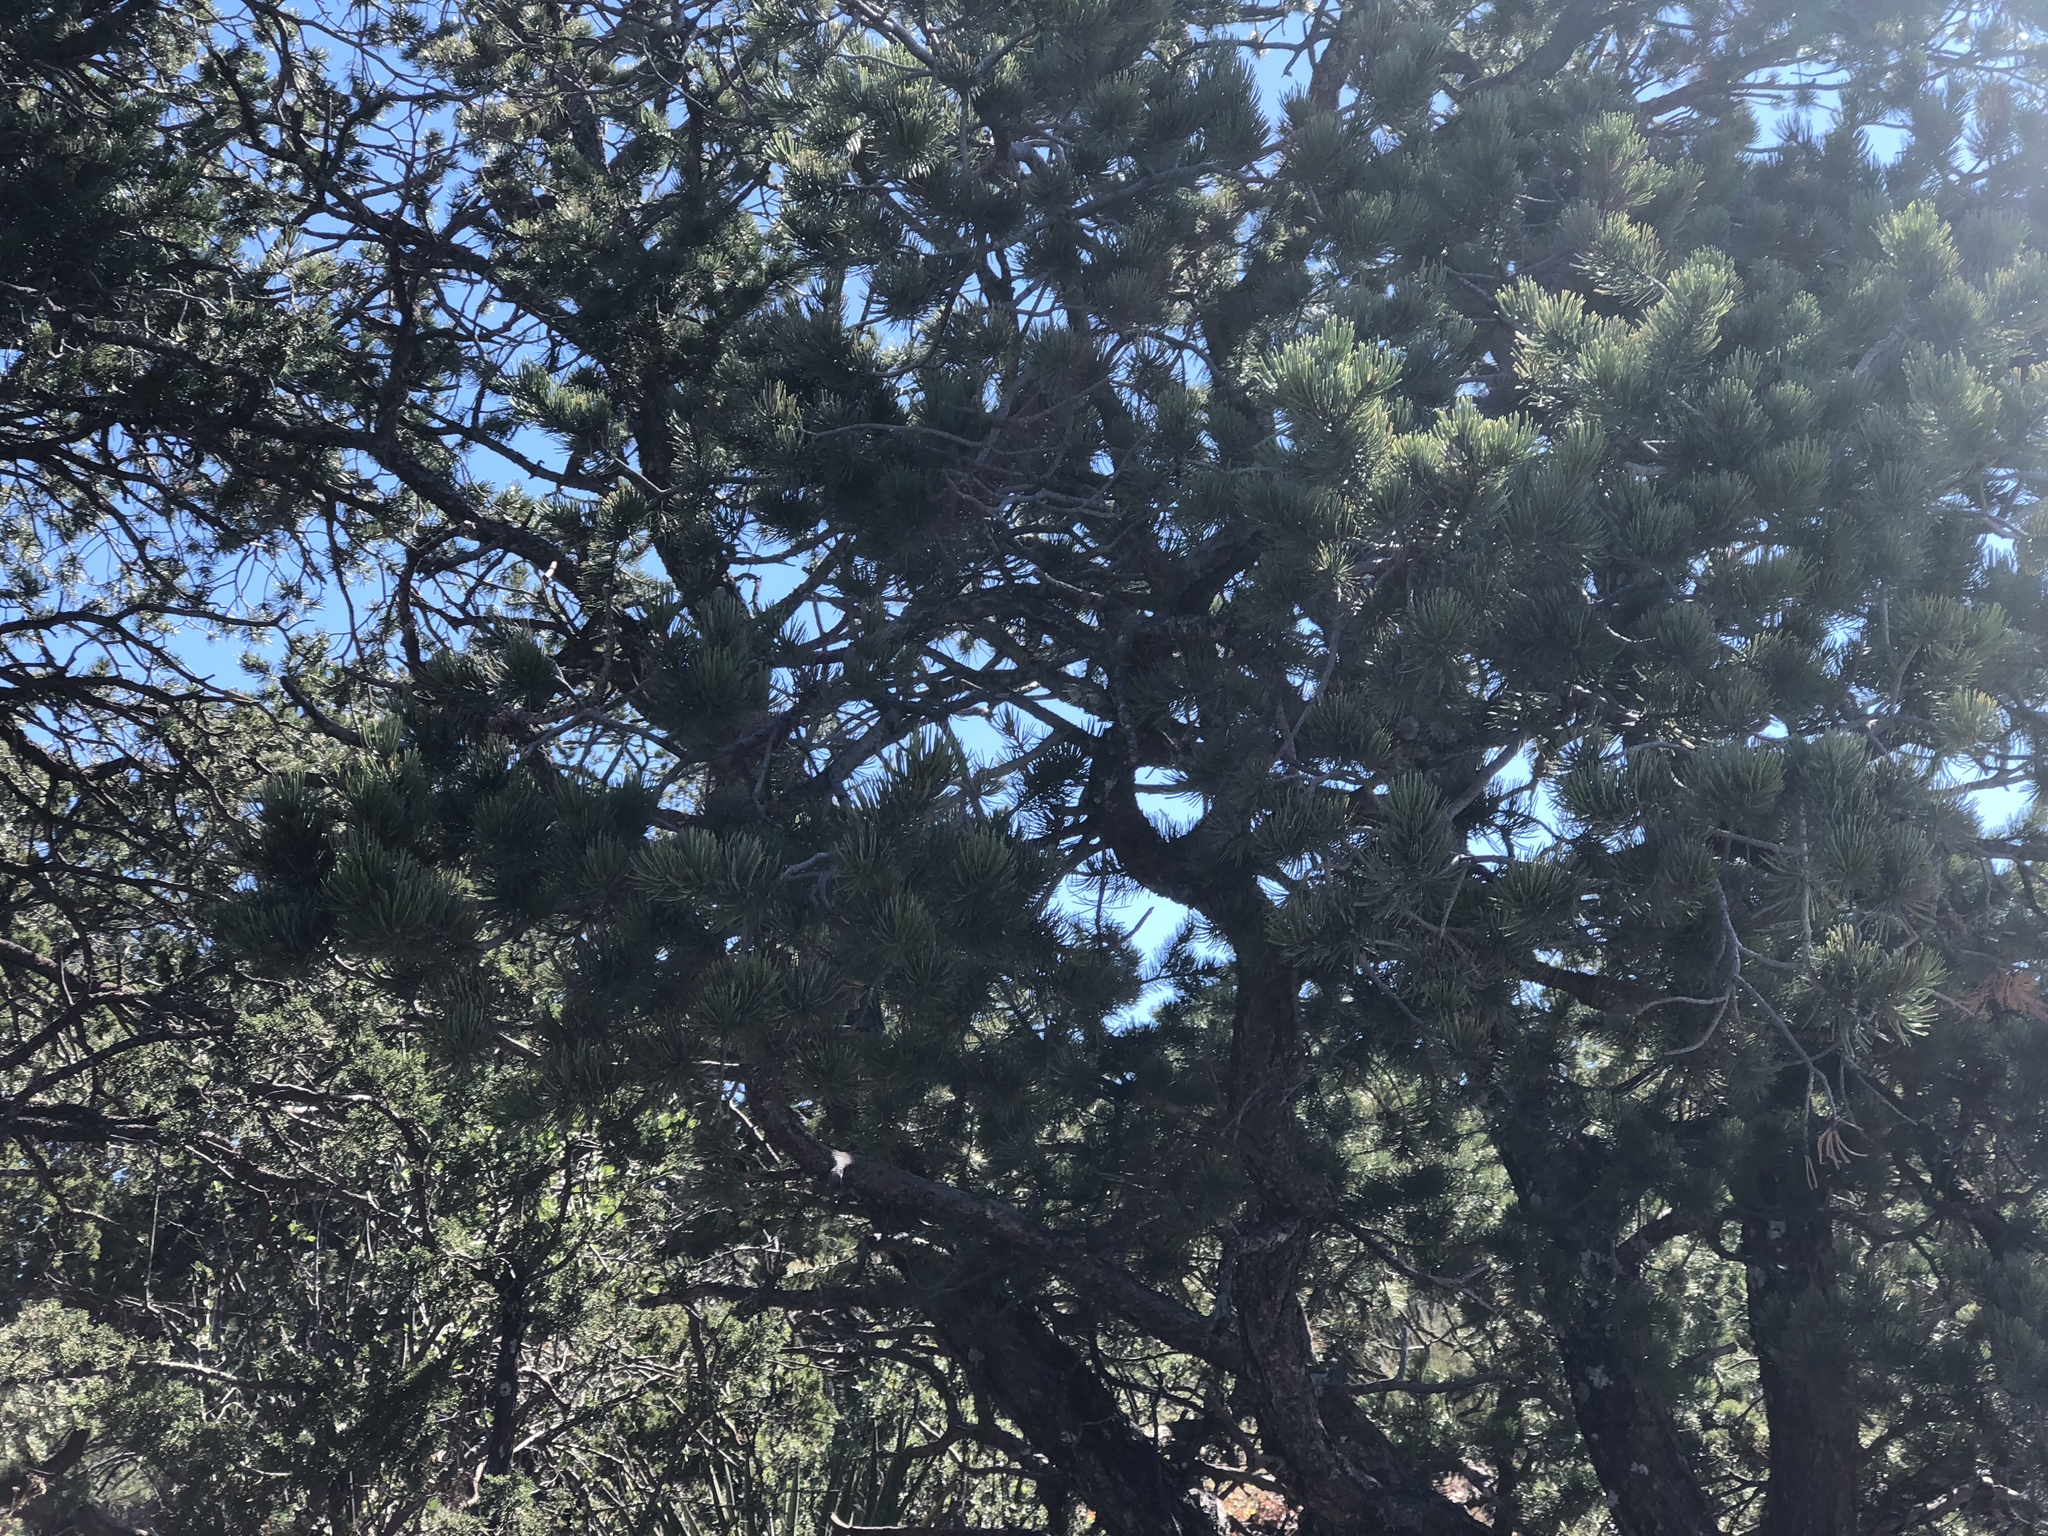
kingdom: Plantae
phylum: Tracheophyta
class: Pinopsida
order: Pinales
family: Pinaceae
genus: Pinus
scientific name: Pinus edulis
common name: Colorado pinyon
